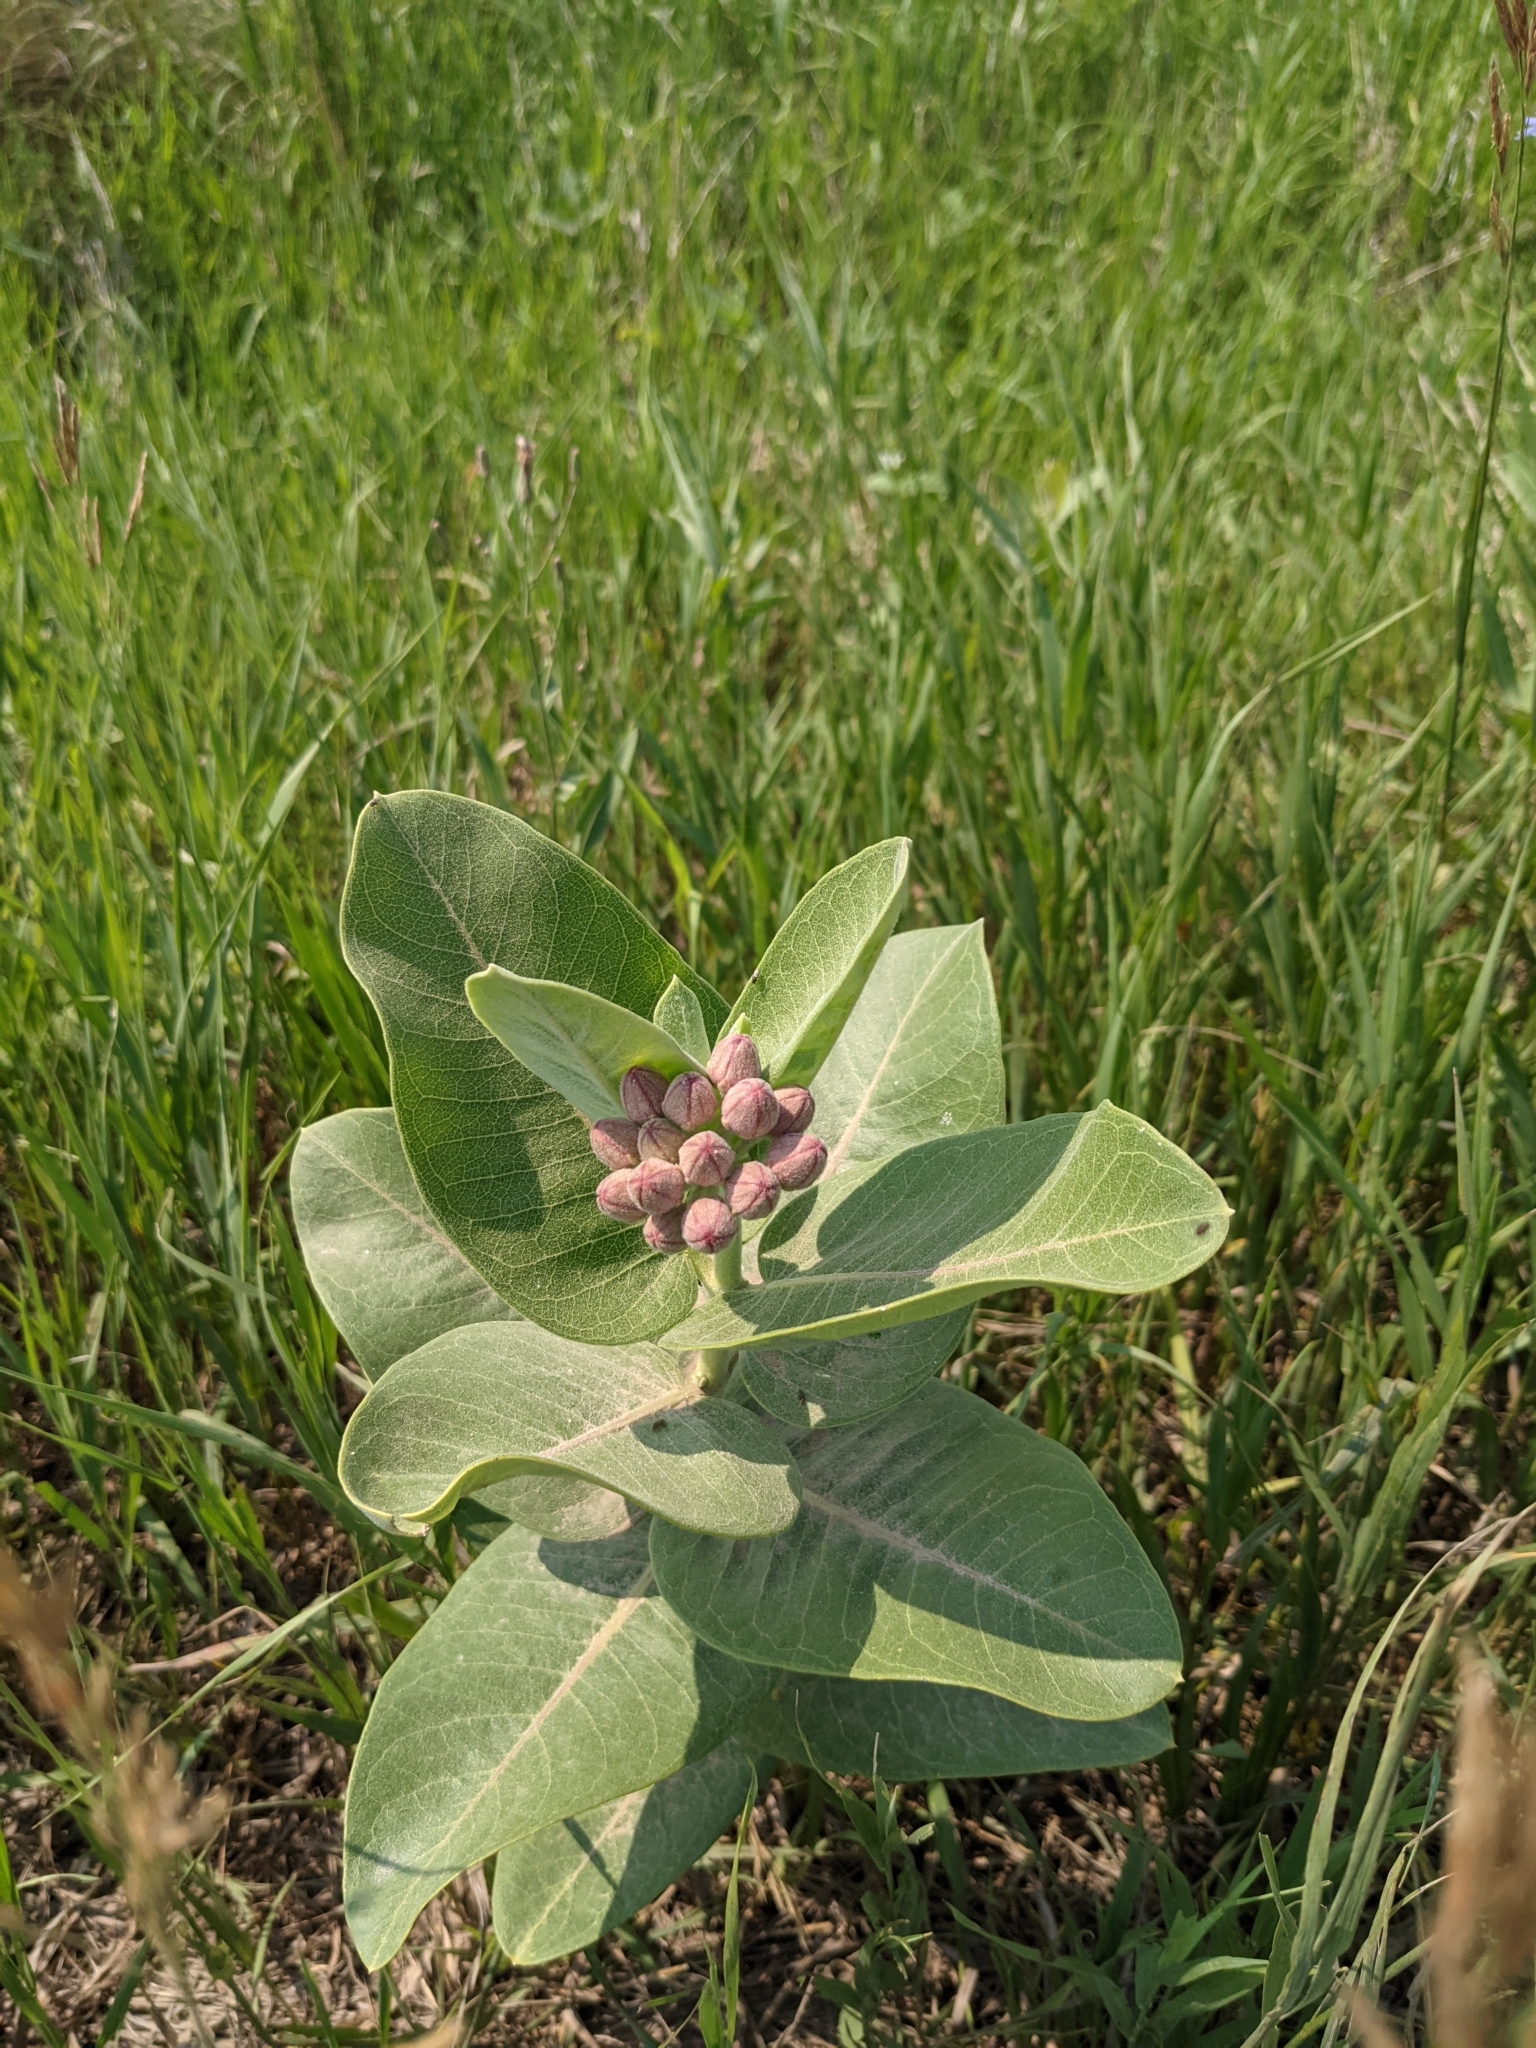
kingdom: Plantae
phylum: Tracheophyta
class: Magnoliopsida
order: Gentianales
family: Apocynaceae
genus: Asclepias
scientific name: Asclepias speciosa
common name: Showy milkweed
